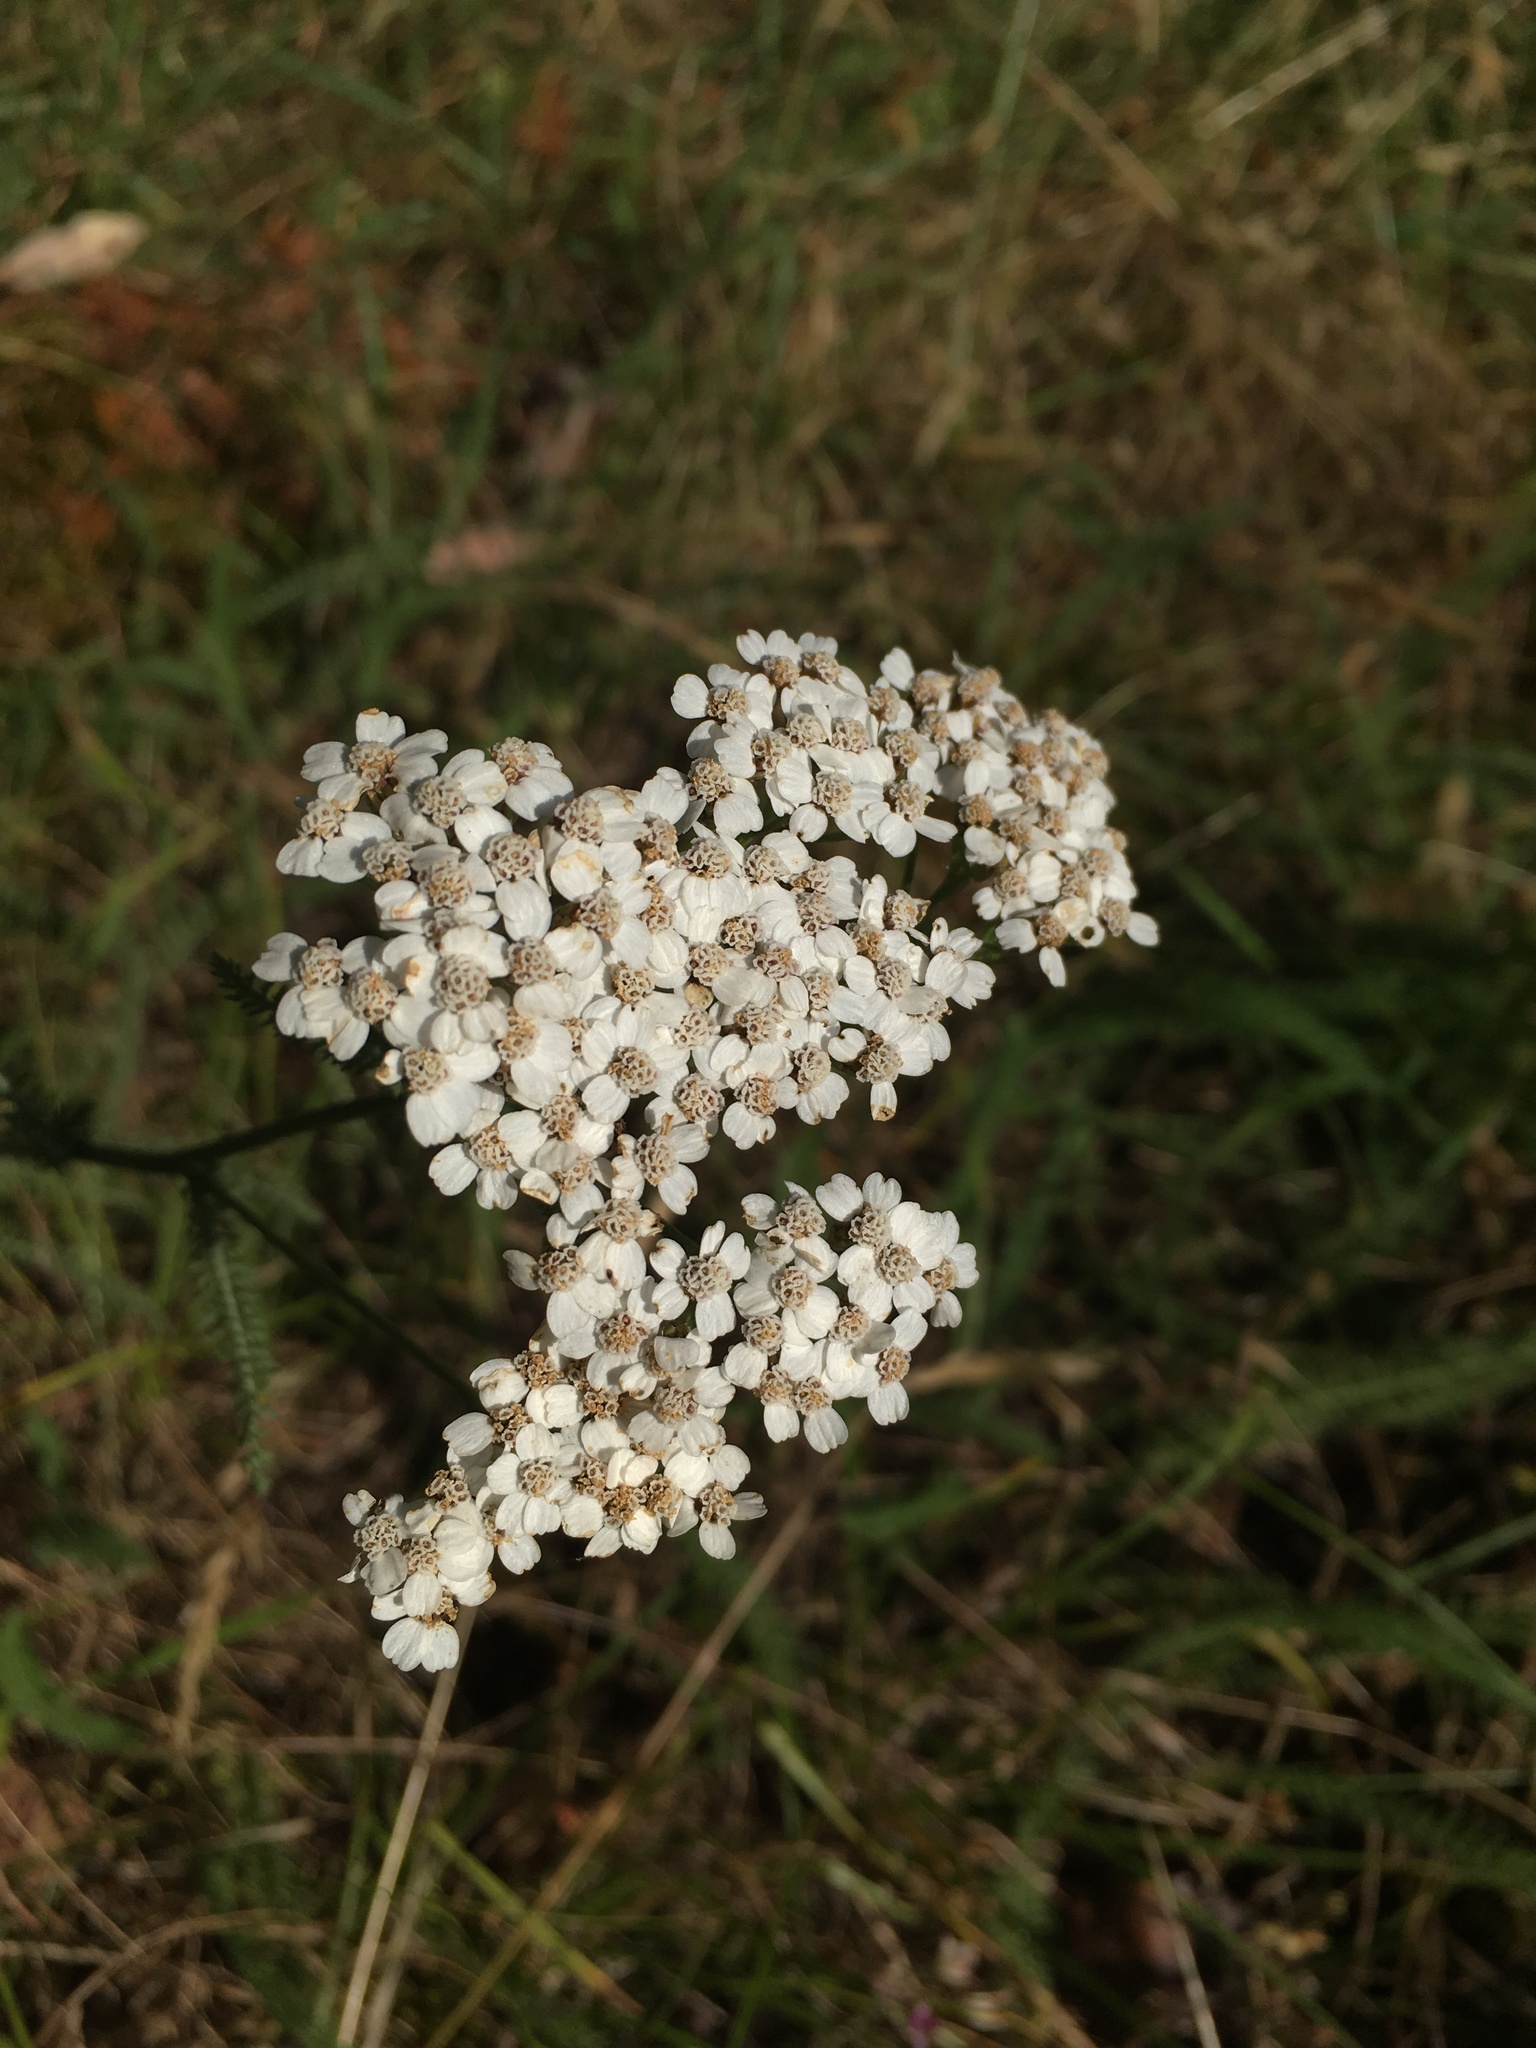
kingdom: Plantae
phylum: Tracheophyta
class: Magnoliopsida
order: Asterales
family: Asteraceae
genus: Achillea
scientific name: Achillea millefolium
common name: Yarrow
